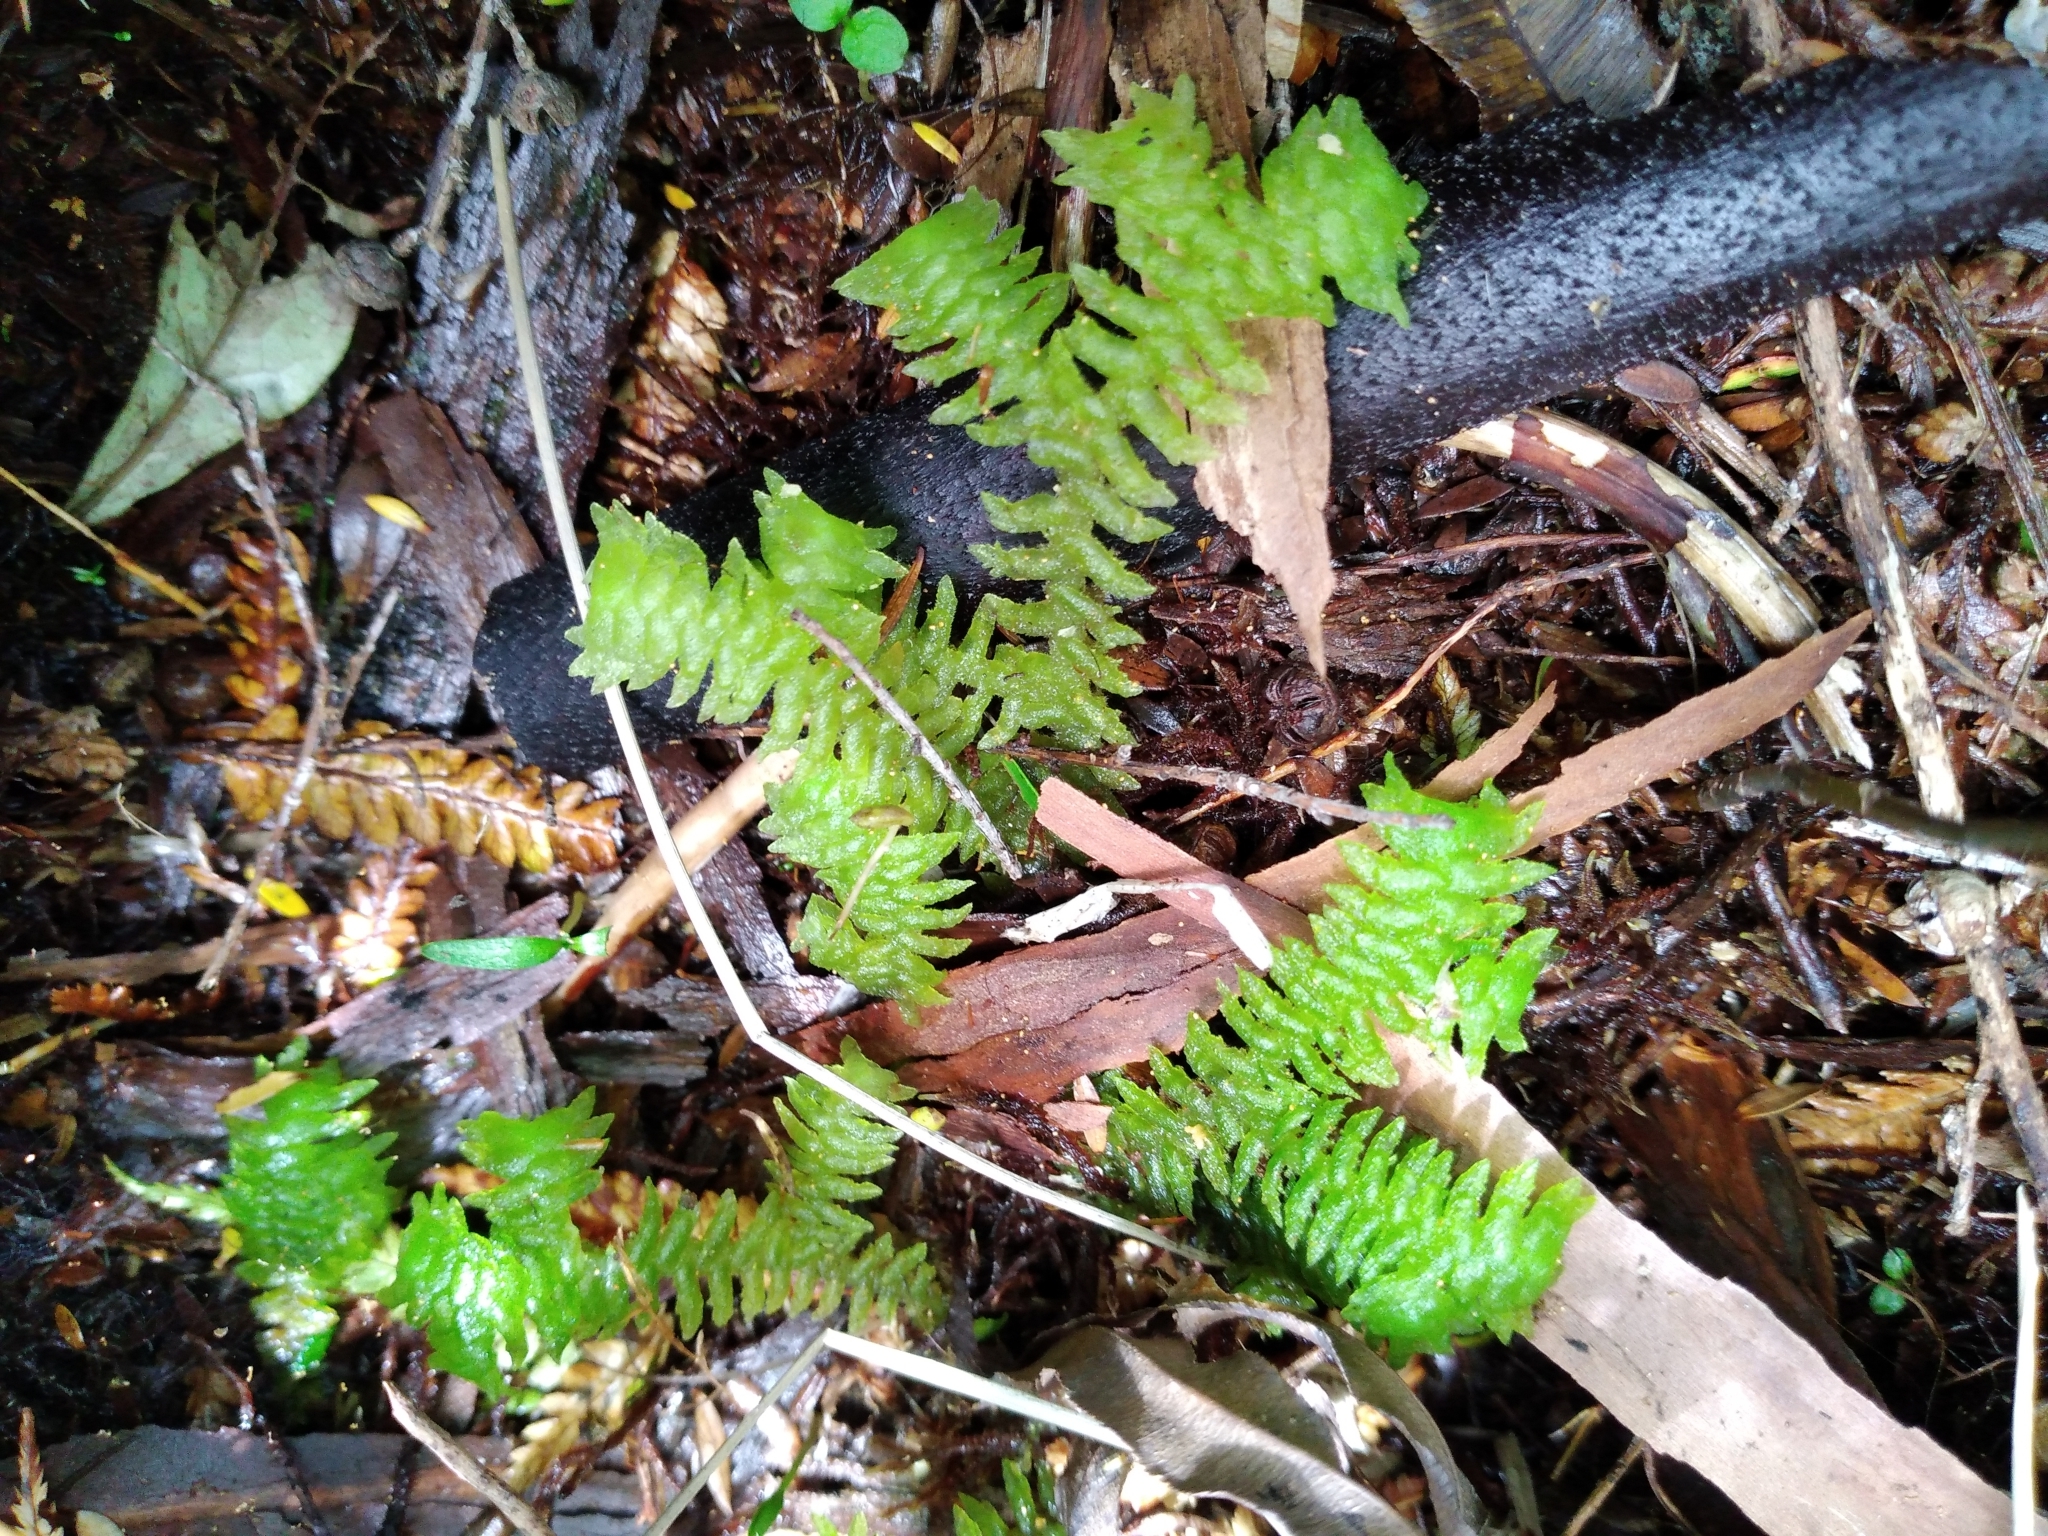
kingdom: Plantae
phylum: Marchantiophyta
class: Jungermanniopsida
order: Jungermanniales
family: Schistochilaceae
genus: Schistochila
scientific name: Schistochila glaucescens
